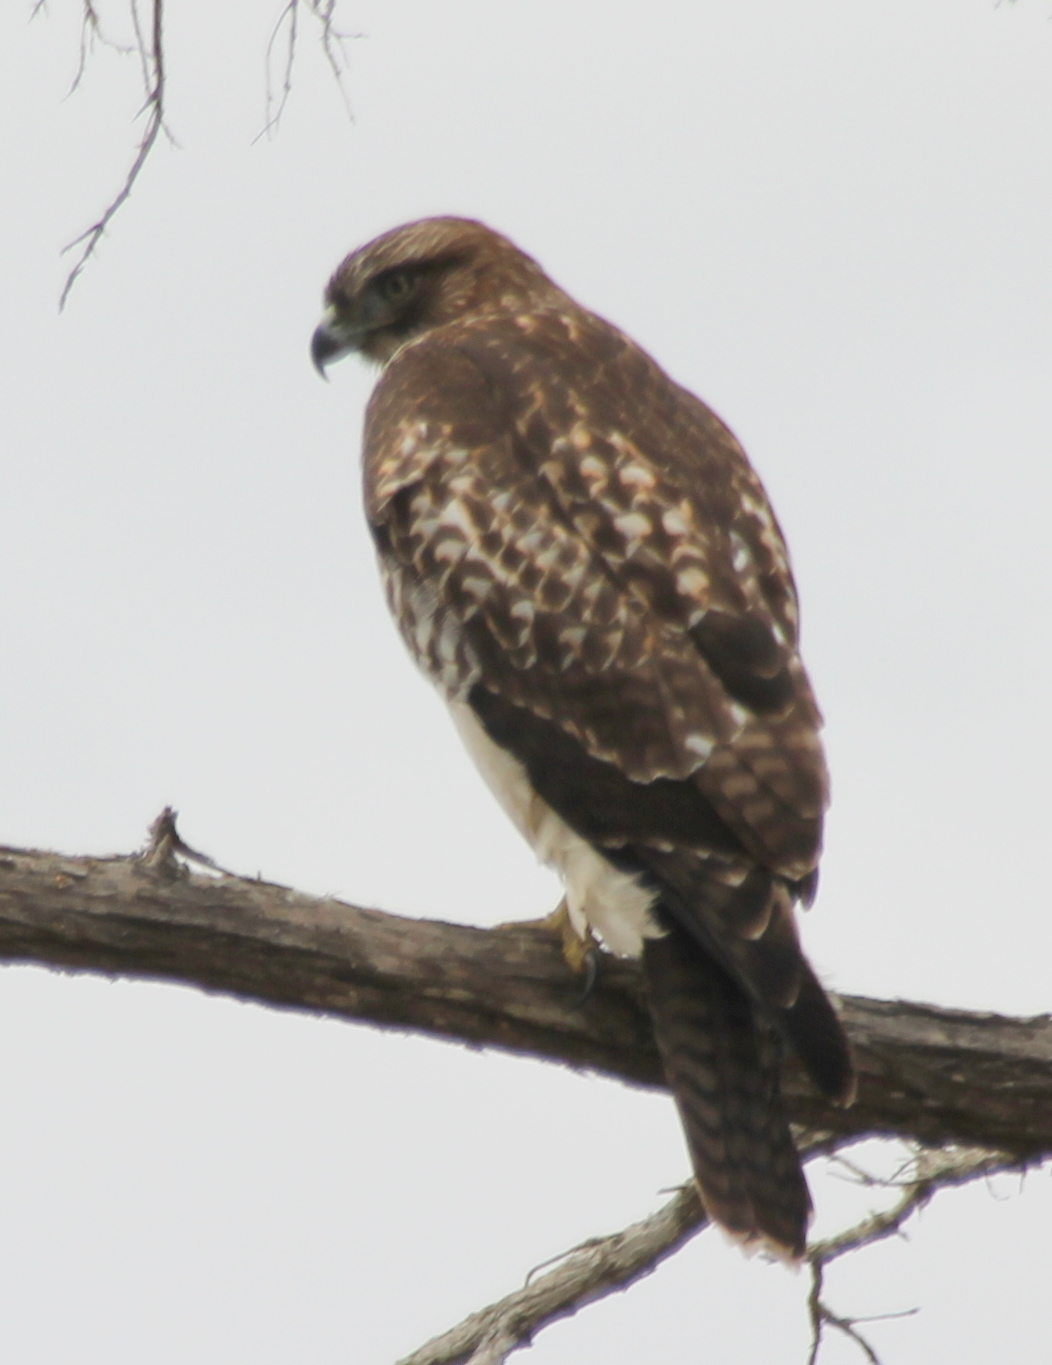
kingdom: Animalia
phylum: Chordata
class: Aves
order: Accipitriformes
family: Accipitridae
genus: Buteo
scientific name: Buteo jamaicensis
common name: Red-tailed hawk
